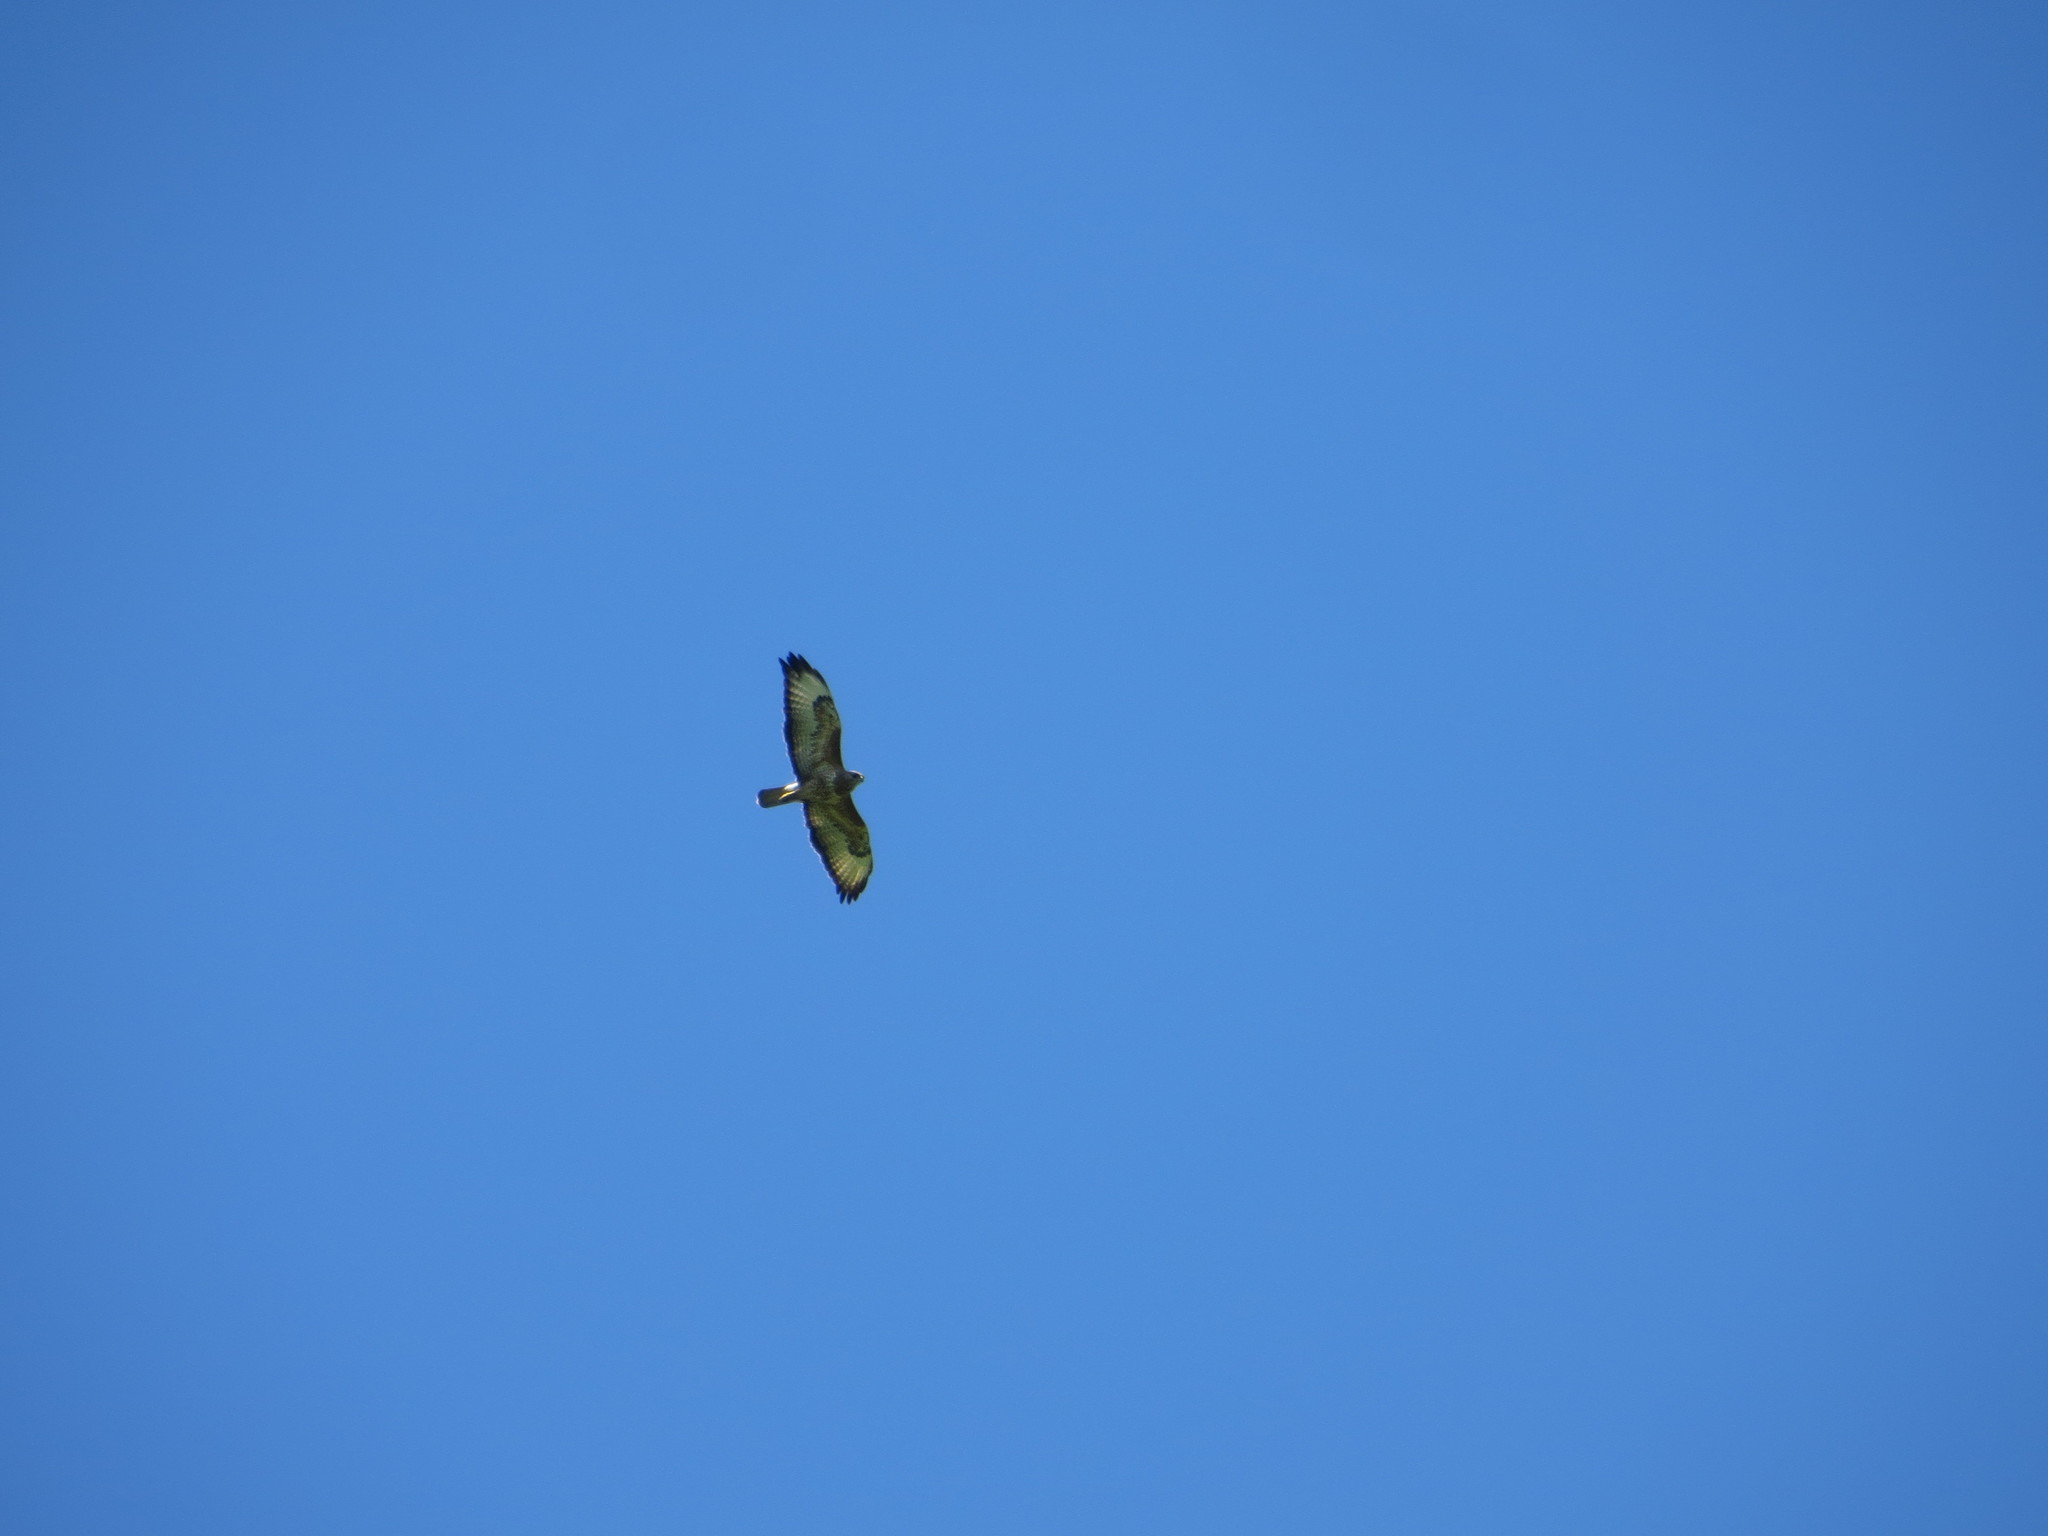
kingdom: Animalia
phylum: Chordata
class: Aves
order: Accipitriformes
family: Accipitridae
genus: Buteo
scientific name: Buteo buteo
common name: Common buzzard
